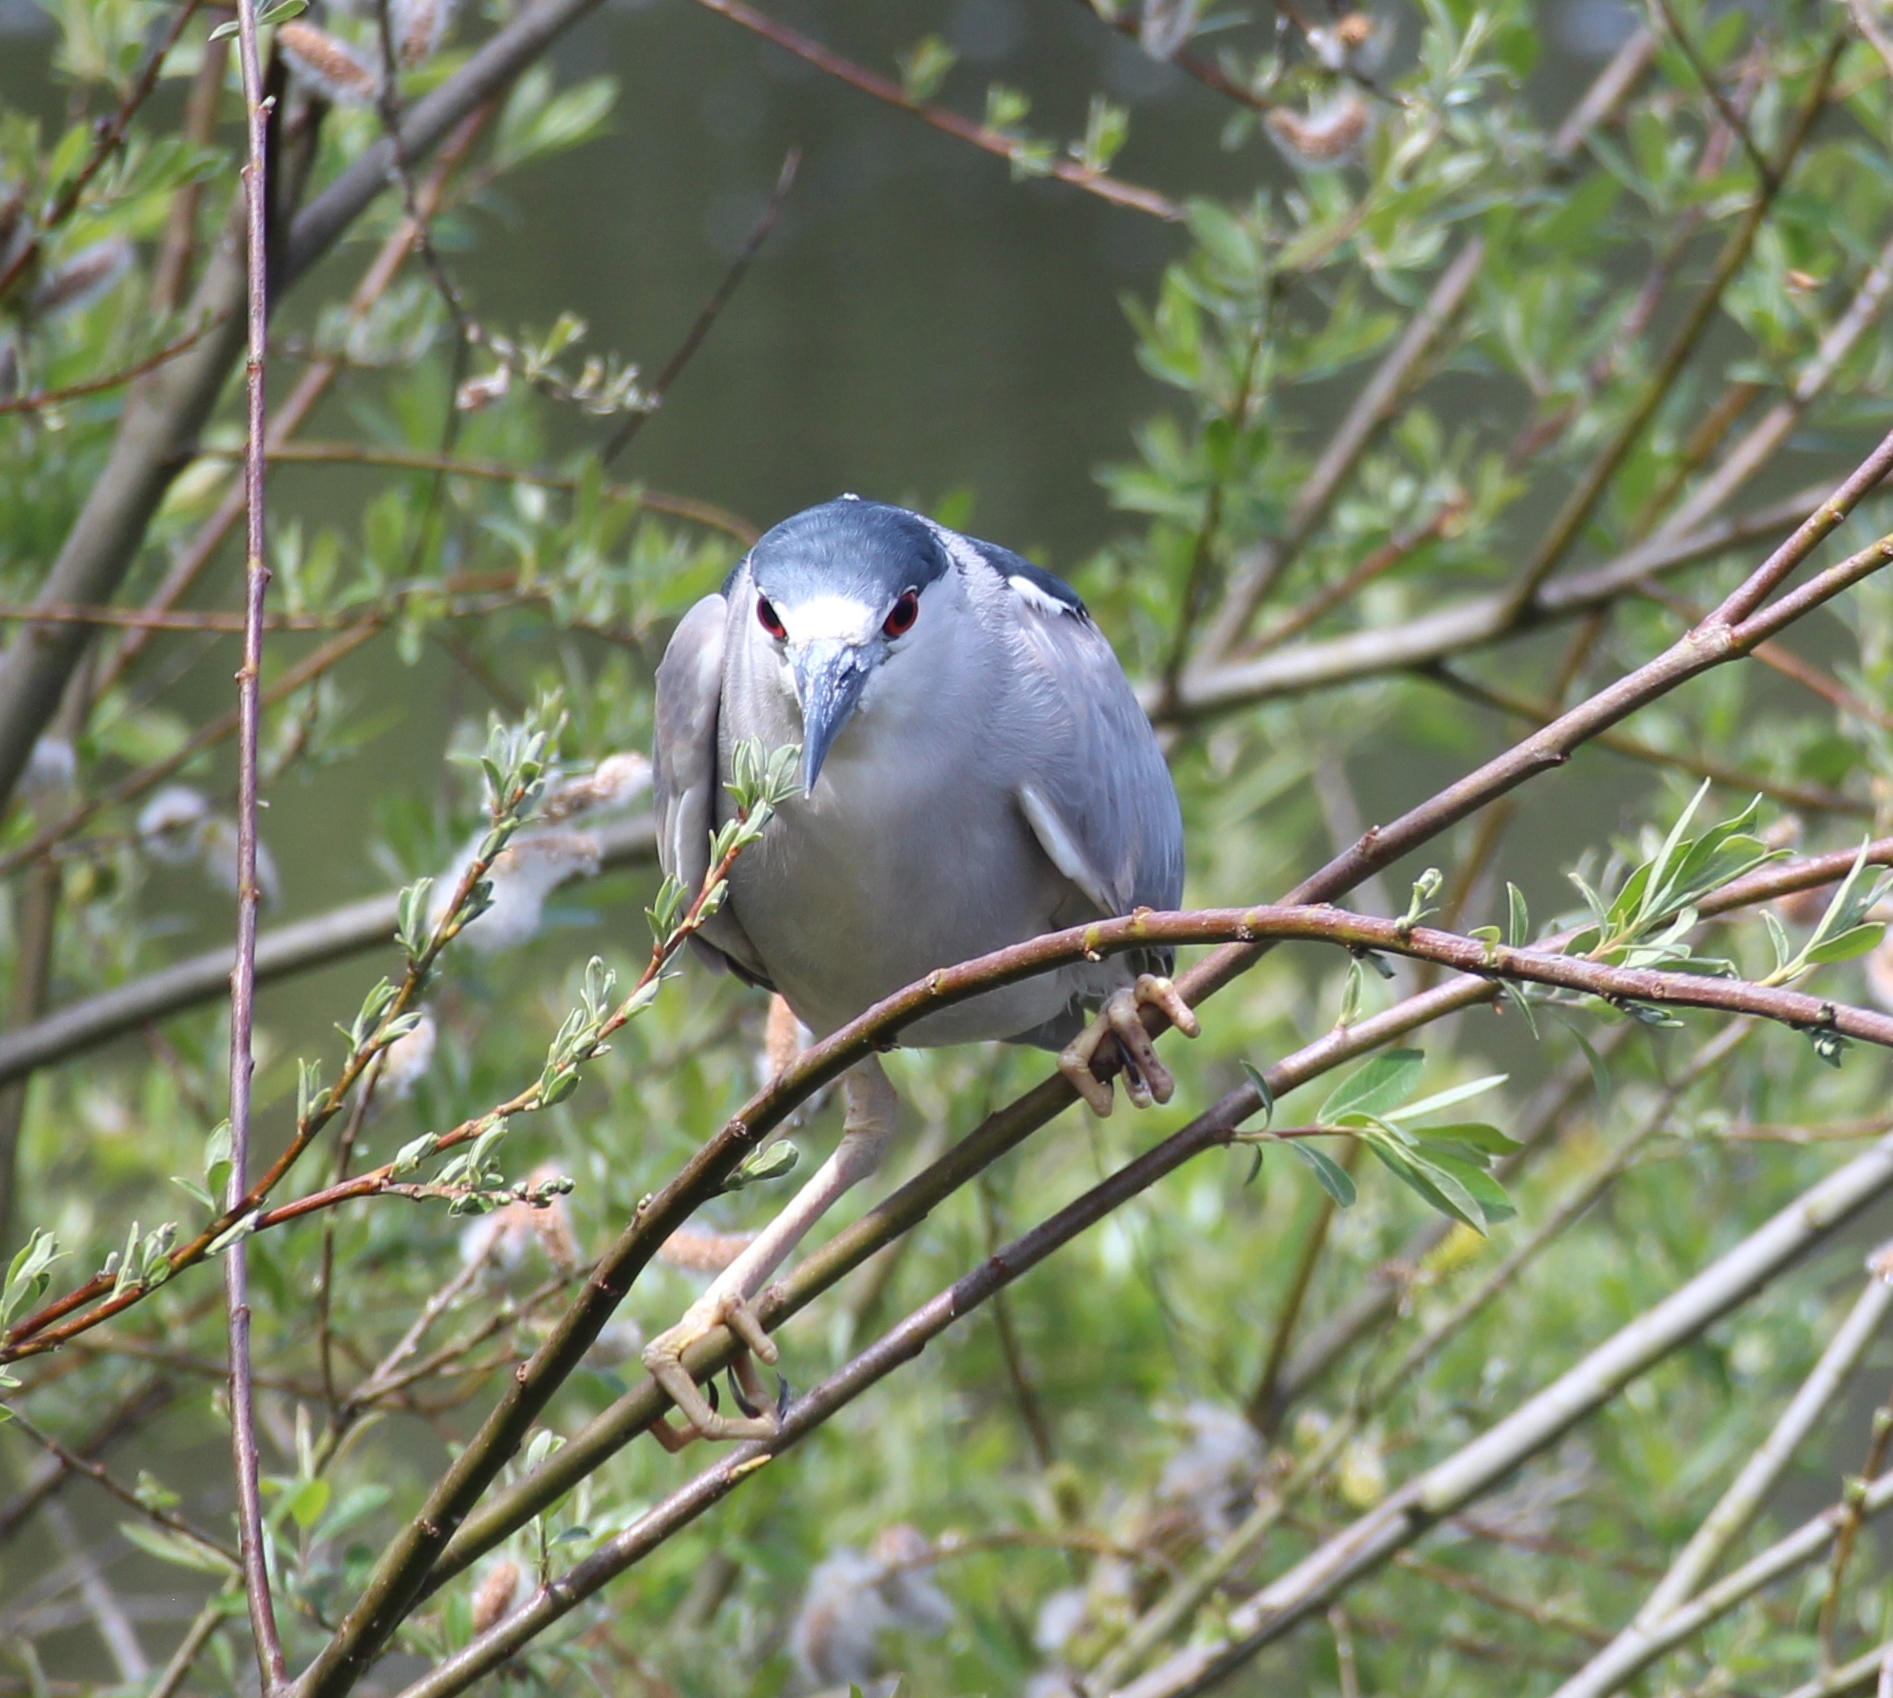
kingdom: Animalia
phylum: Chordata
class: Aves
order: Pelecaniformes
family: Ardeidae
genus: Nycticorax
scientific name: Nycticorax nycticorax
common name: Black-crowned night heron
